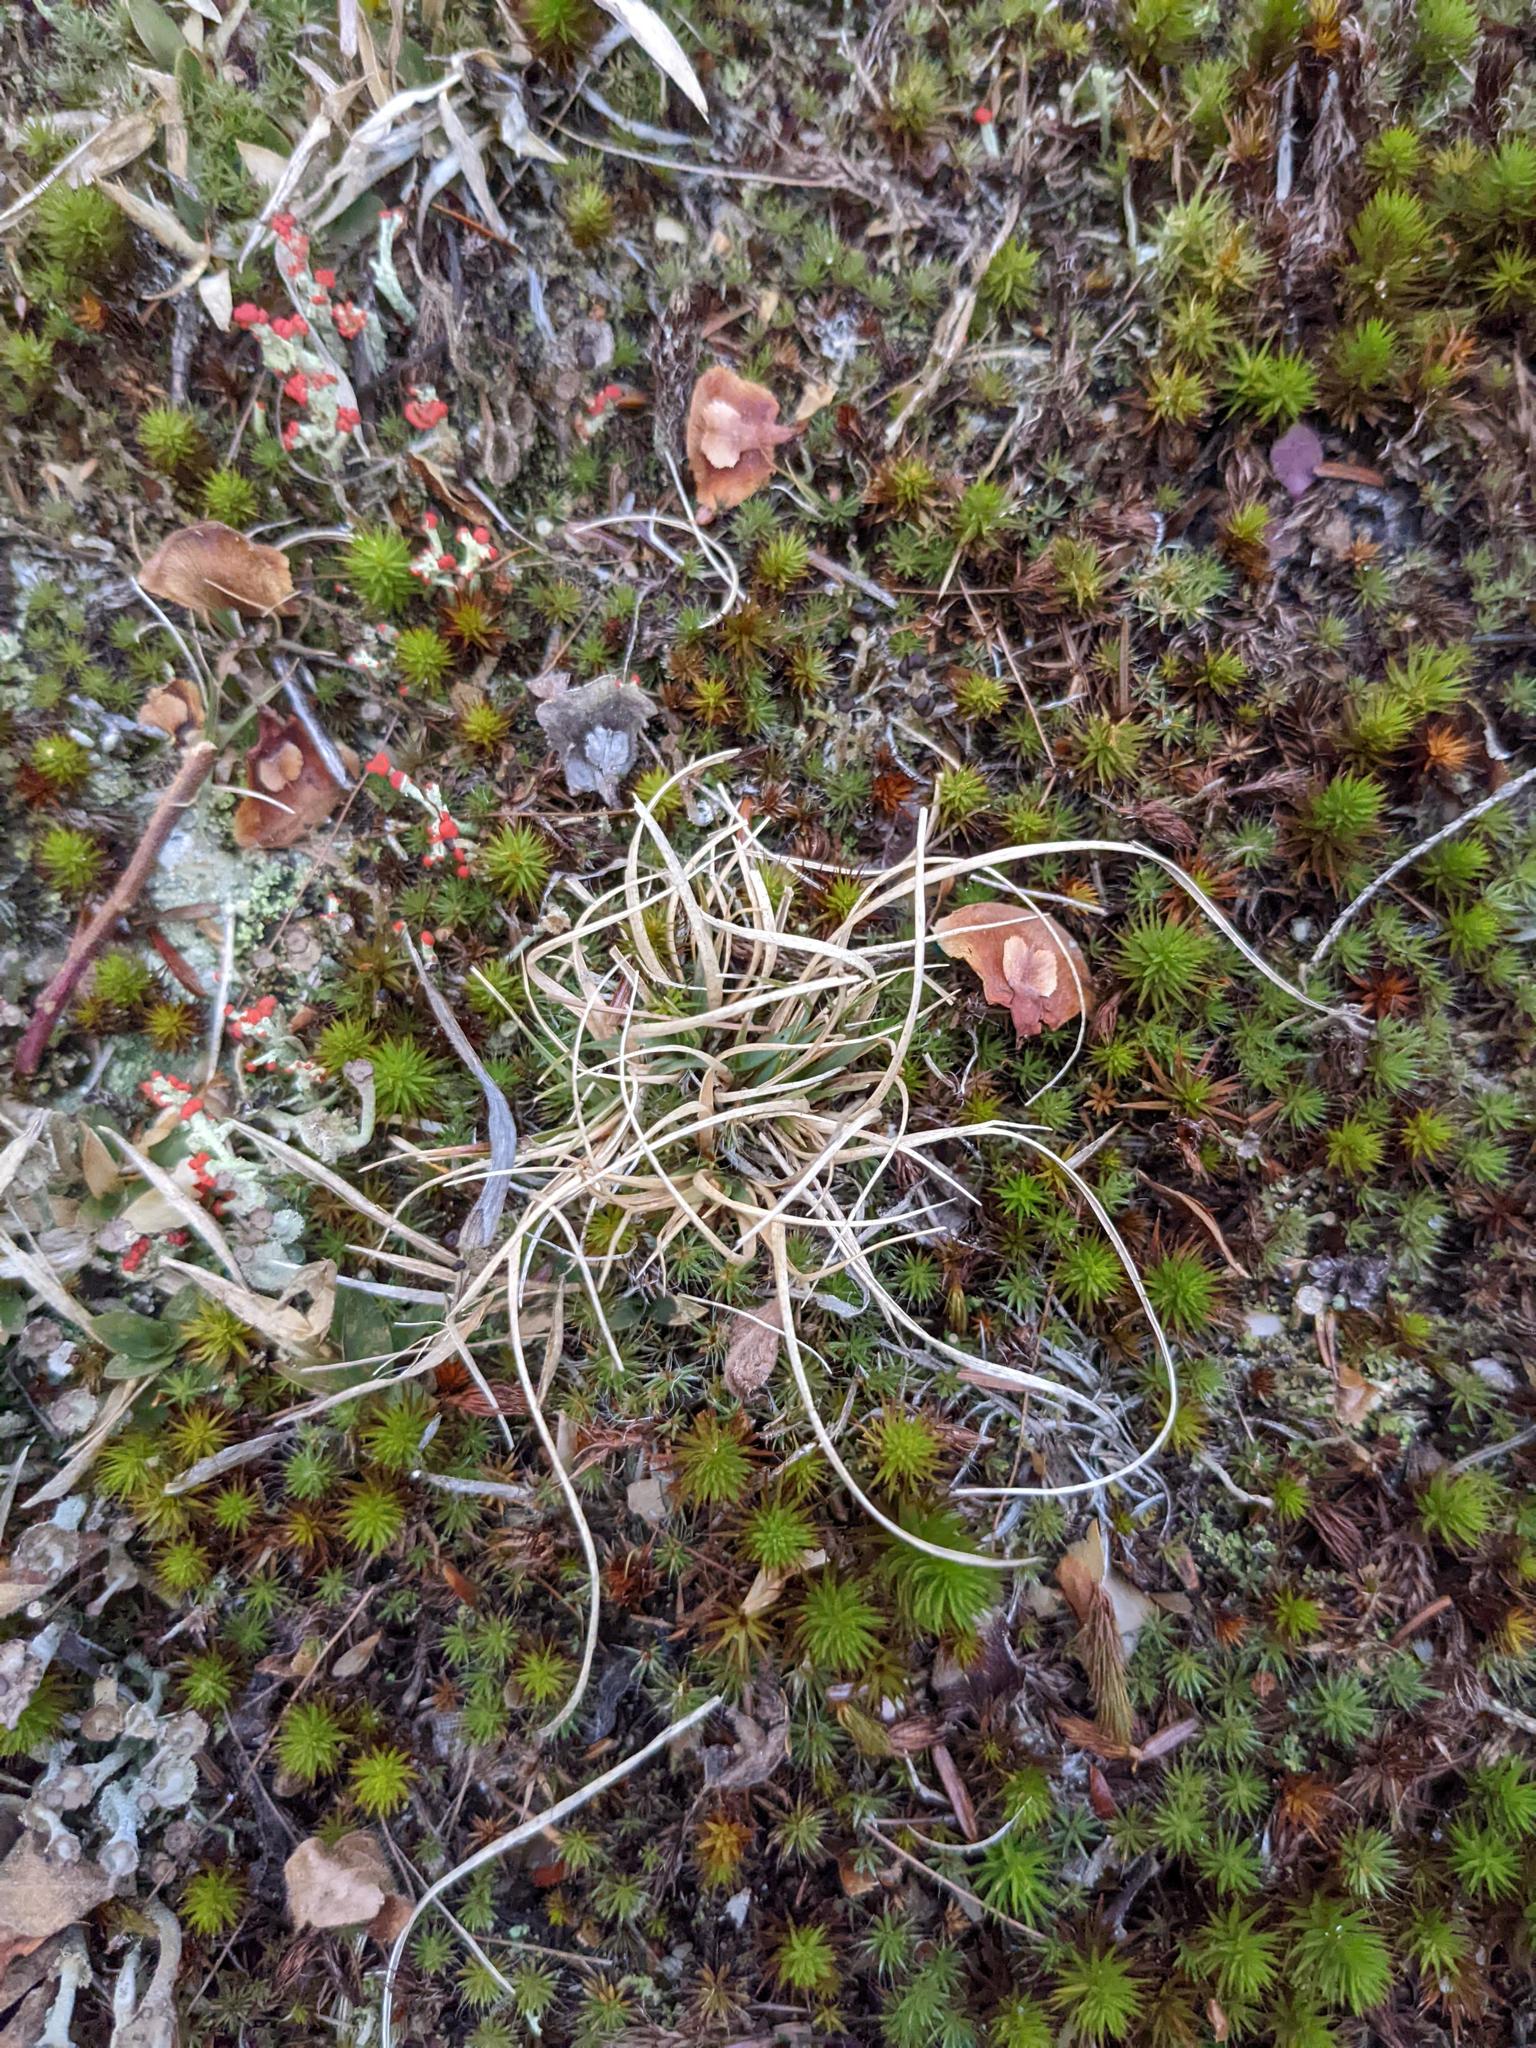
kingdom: Plantae
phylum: Tracheophyta
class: Liliopsida
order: Poales
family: Poaceae
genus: Danthonia
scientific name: Danthonia spicata
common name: Common wild oatgrass
